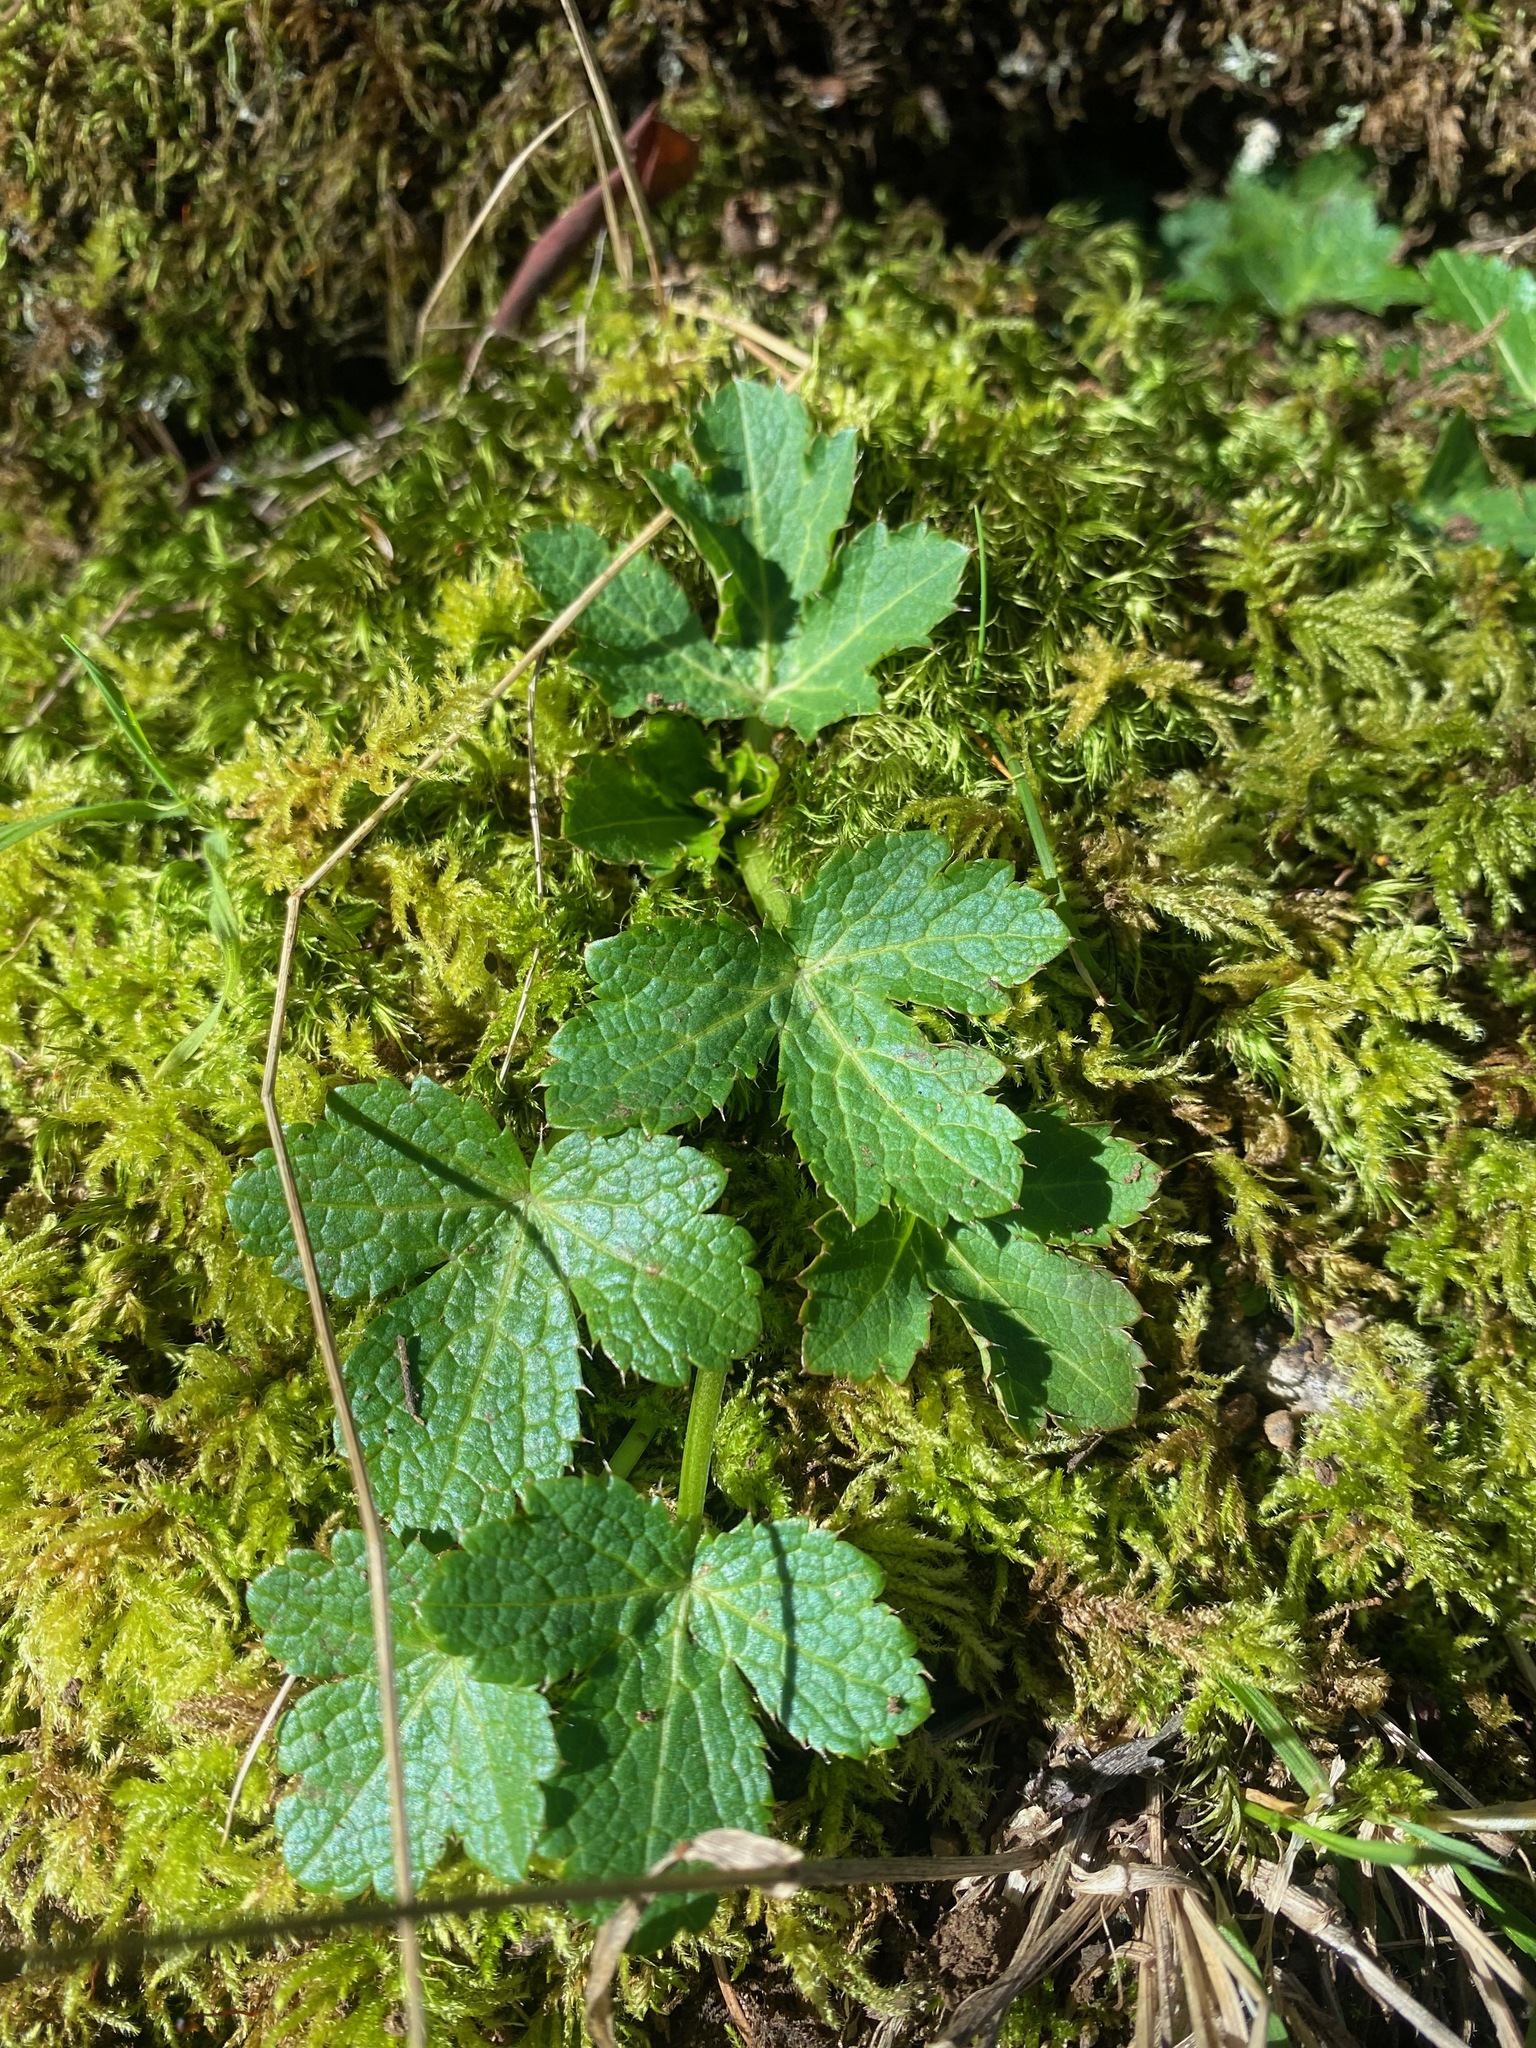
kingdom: Plantae
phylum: Tracheophyta
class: Magnoliopsida
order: Apiales
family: Apiaceae
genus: Sanicula
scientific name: Sanicula crassicaulis
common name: Western snakeroot
